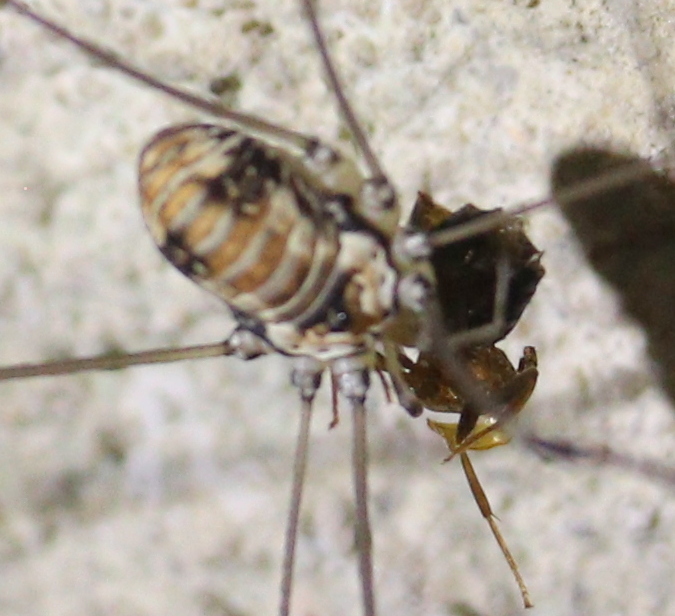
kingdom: Animalia
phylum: Arthropoda
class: Arachnida
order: Opiliones
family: Sclerosomatidae
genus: Leiobunum
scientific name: Leiobunum limbatum
